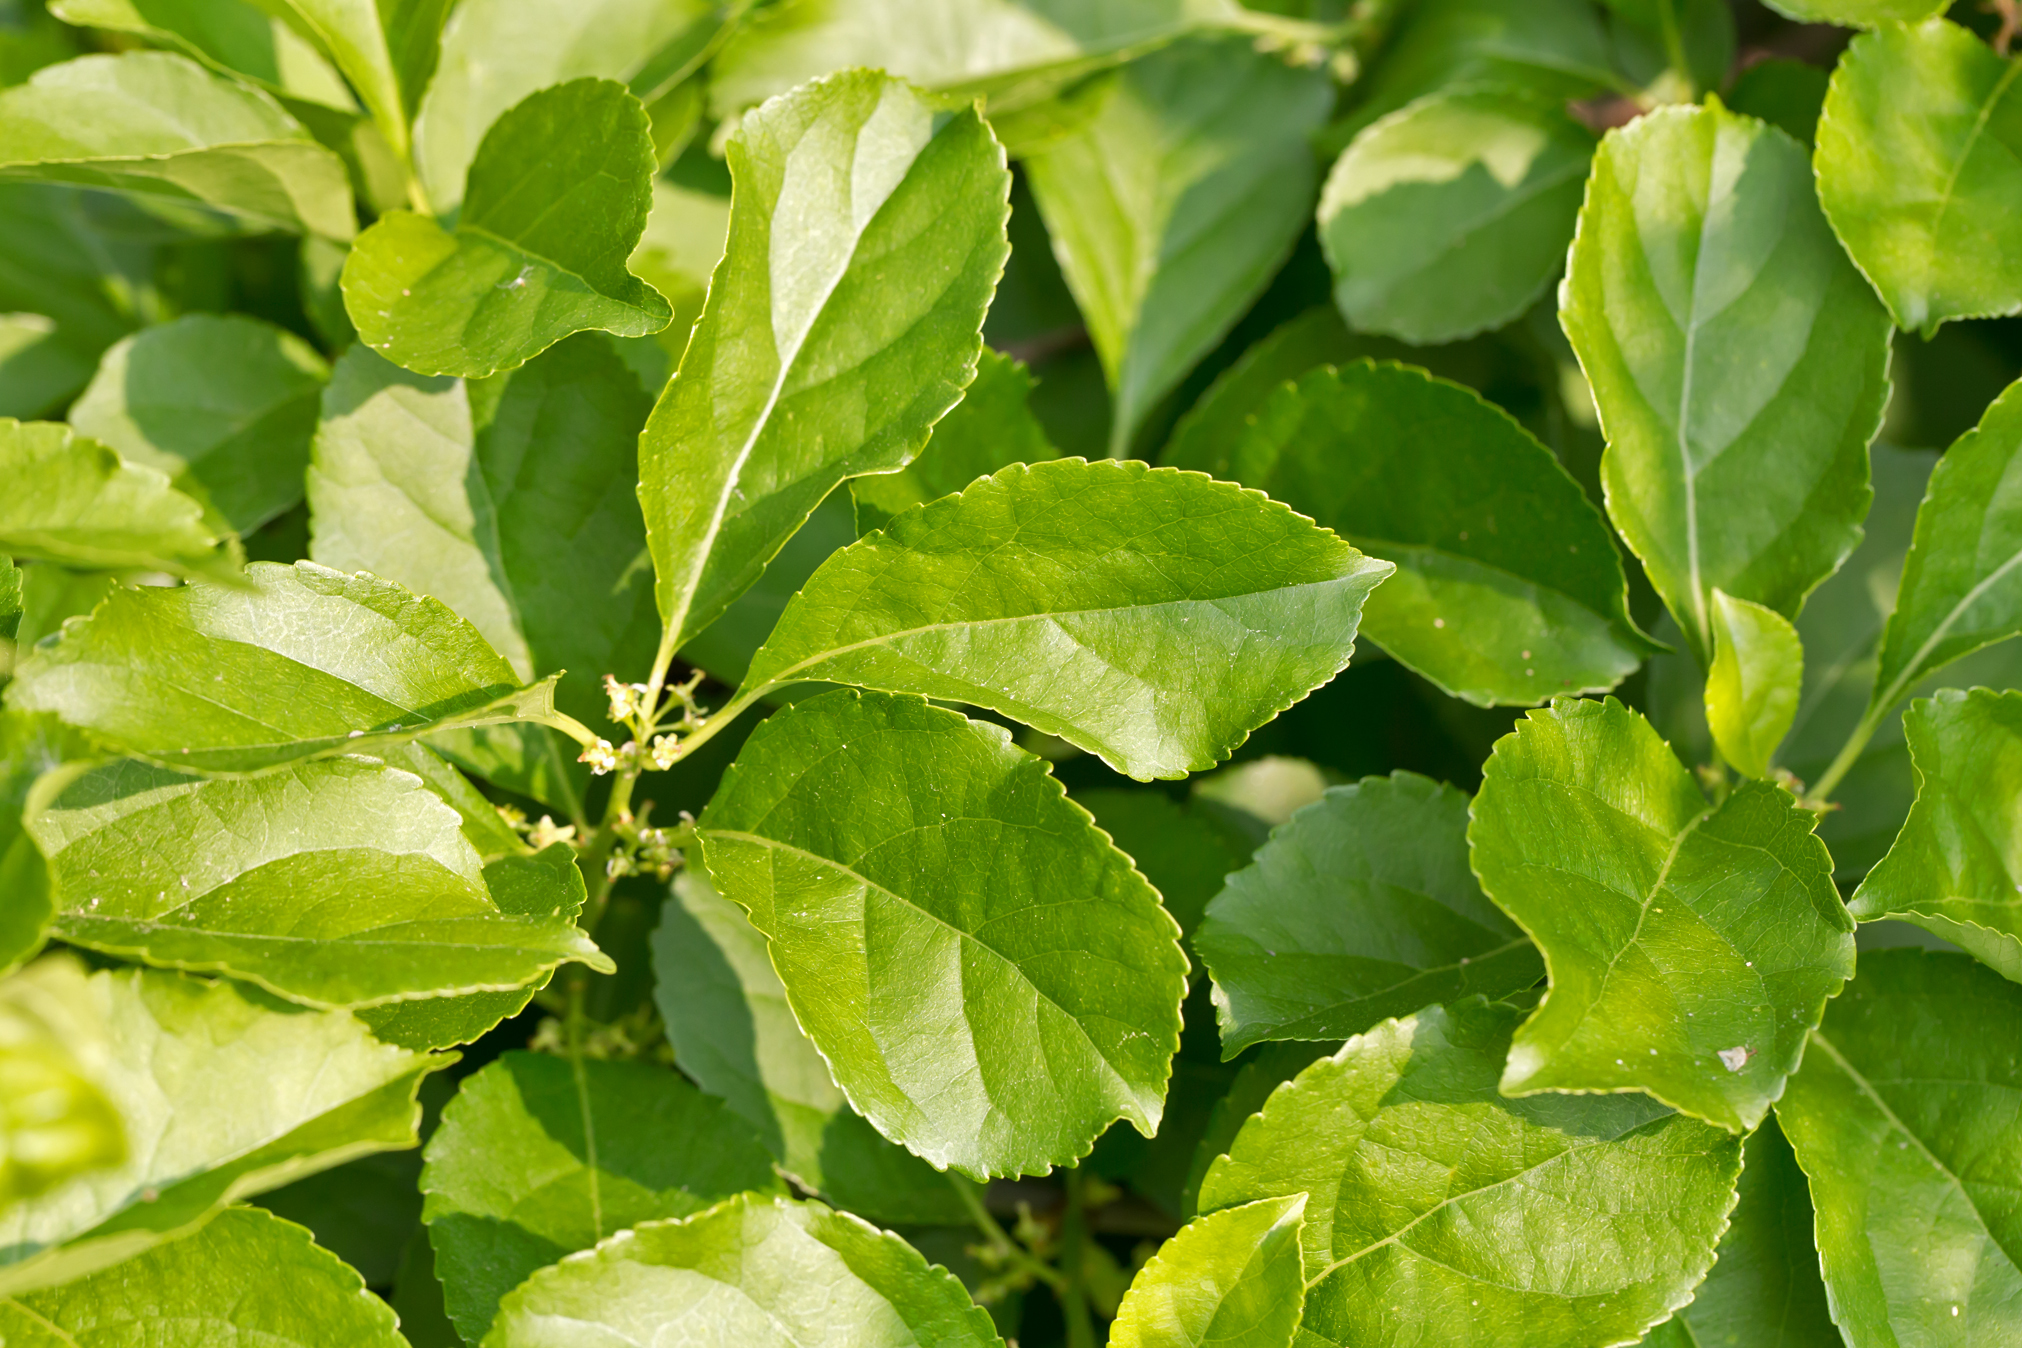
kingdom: Plantae
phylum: Tracheophyta
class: Magnoliopsida
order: Celastrales
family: Celastraceae
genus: Celastrus
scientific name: Celastrus orbiculatus
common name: Oriental bittersweet
